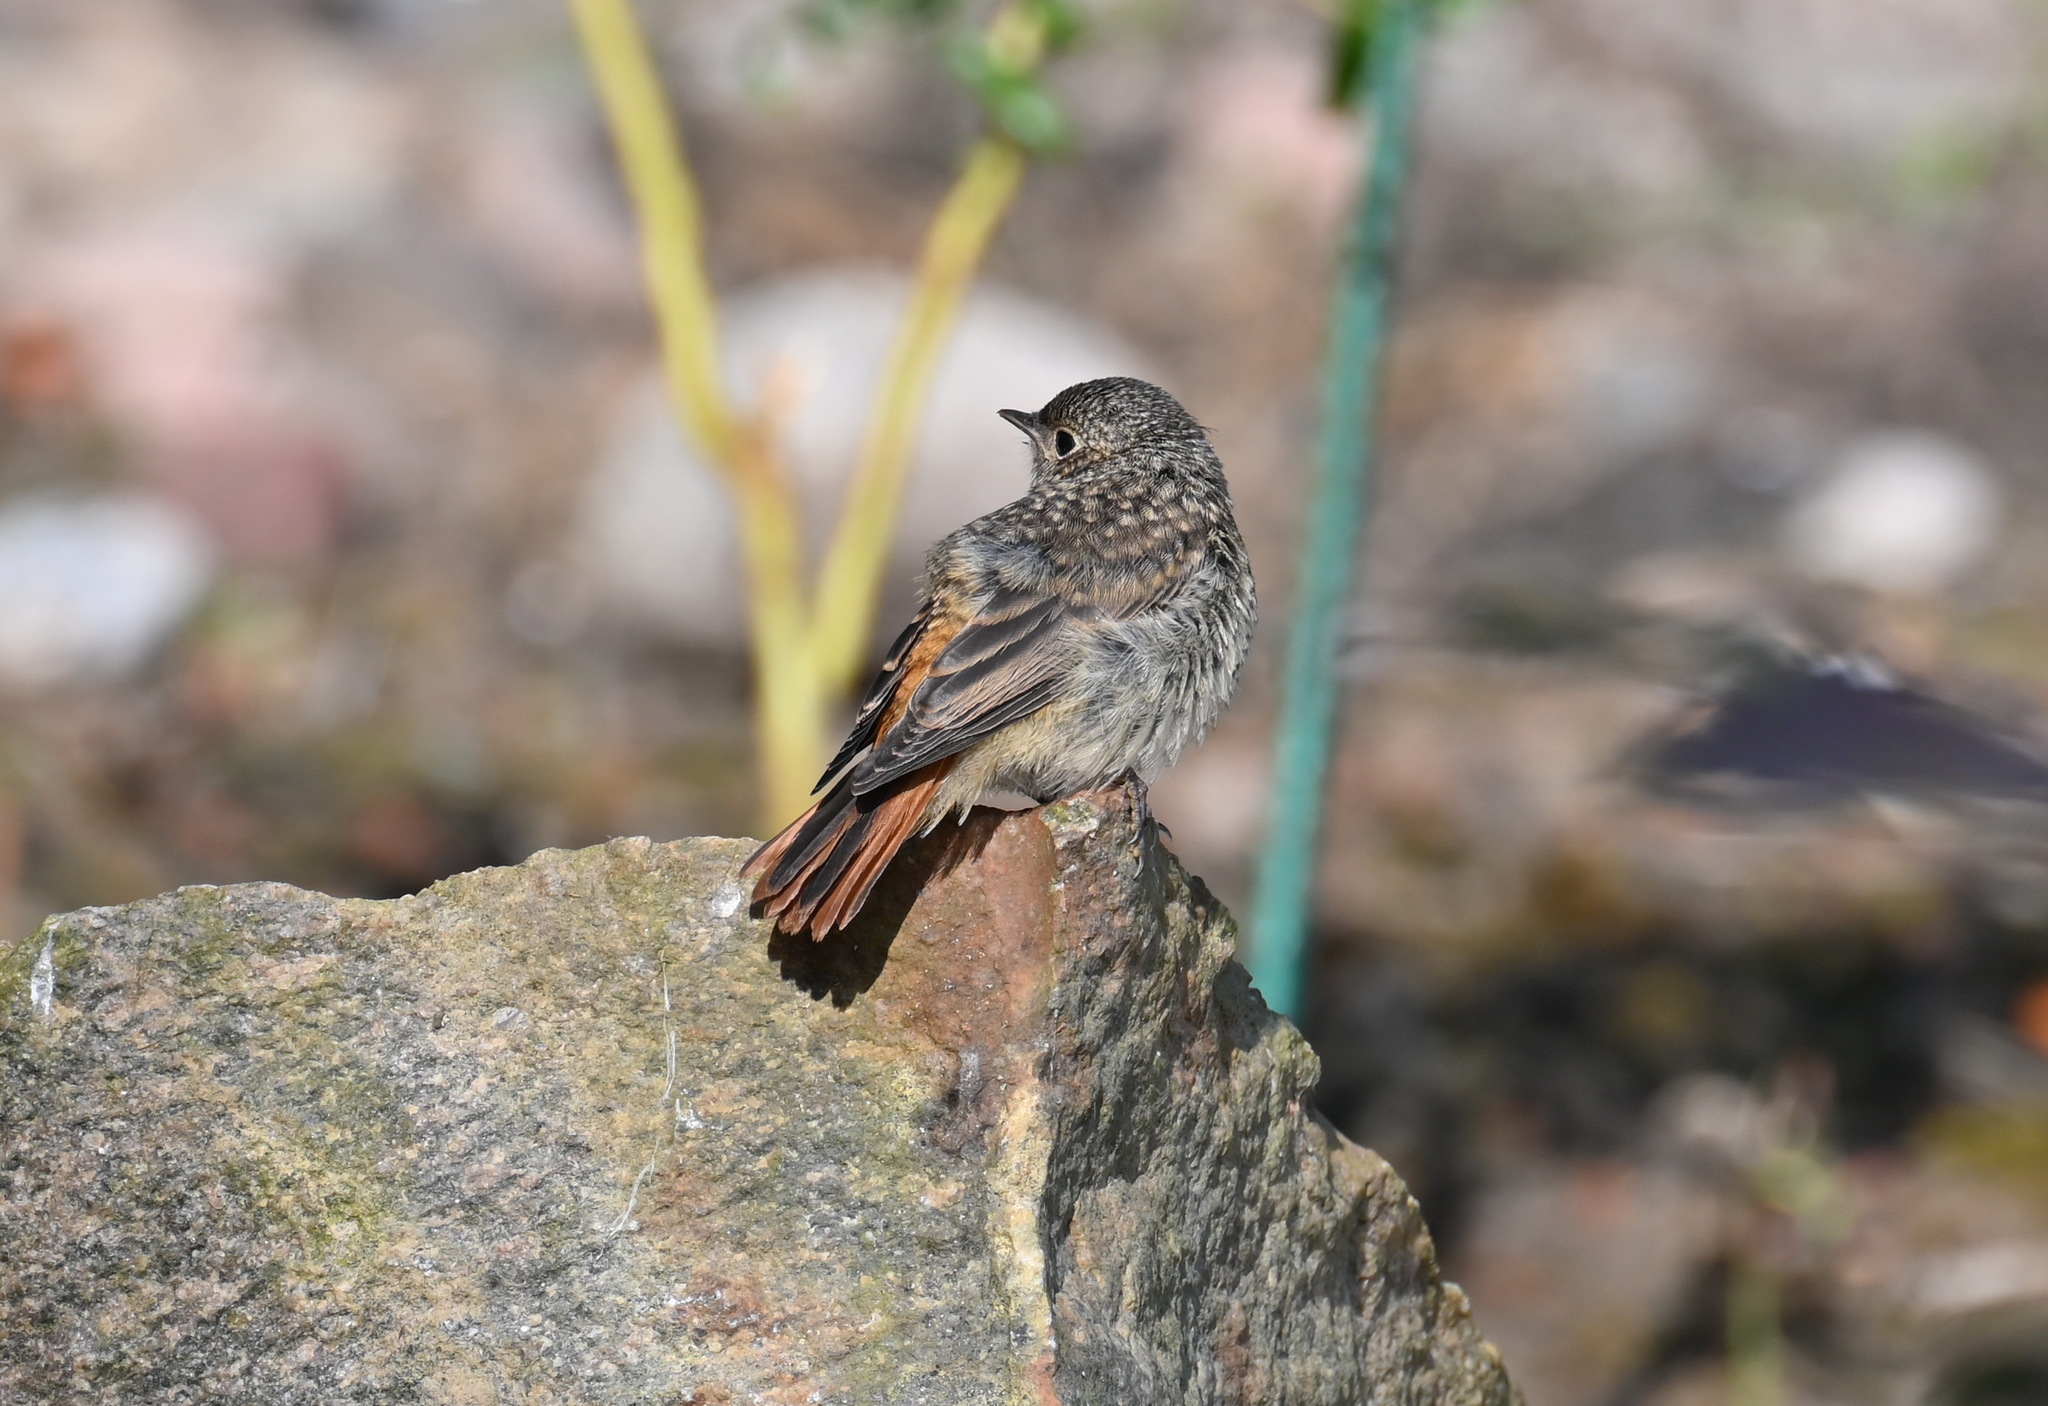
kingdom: Animalia
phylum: Chordata
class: Aves
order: Passeriformes
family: Muscicapidae
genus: Phoenicurus
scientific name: Phoenicurus phoenicurus
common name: Common redstart
